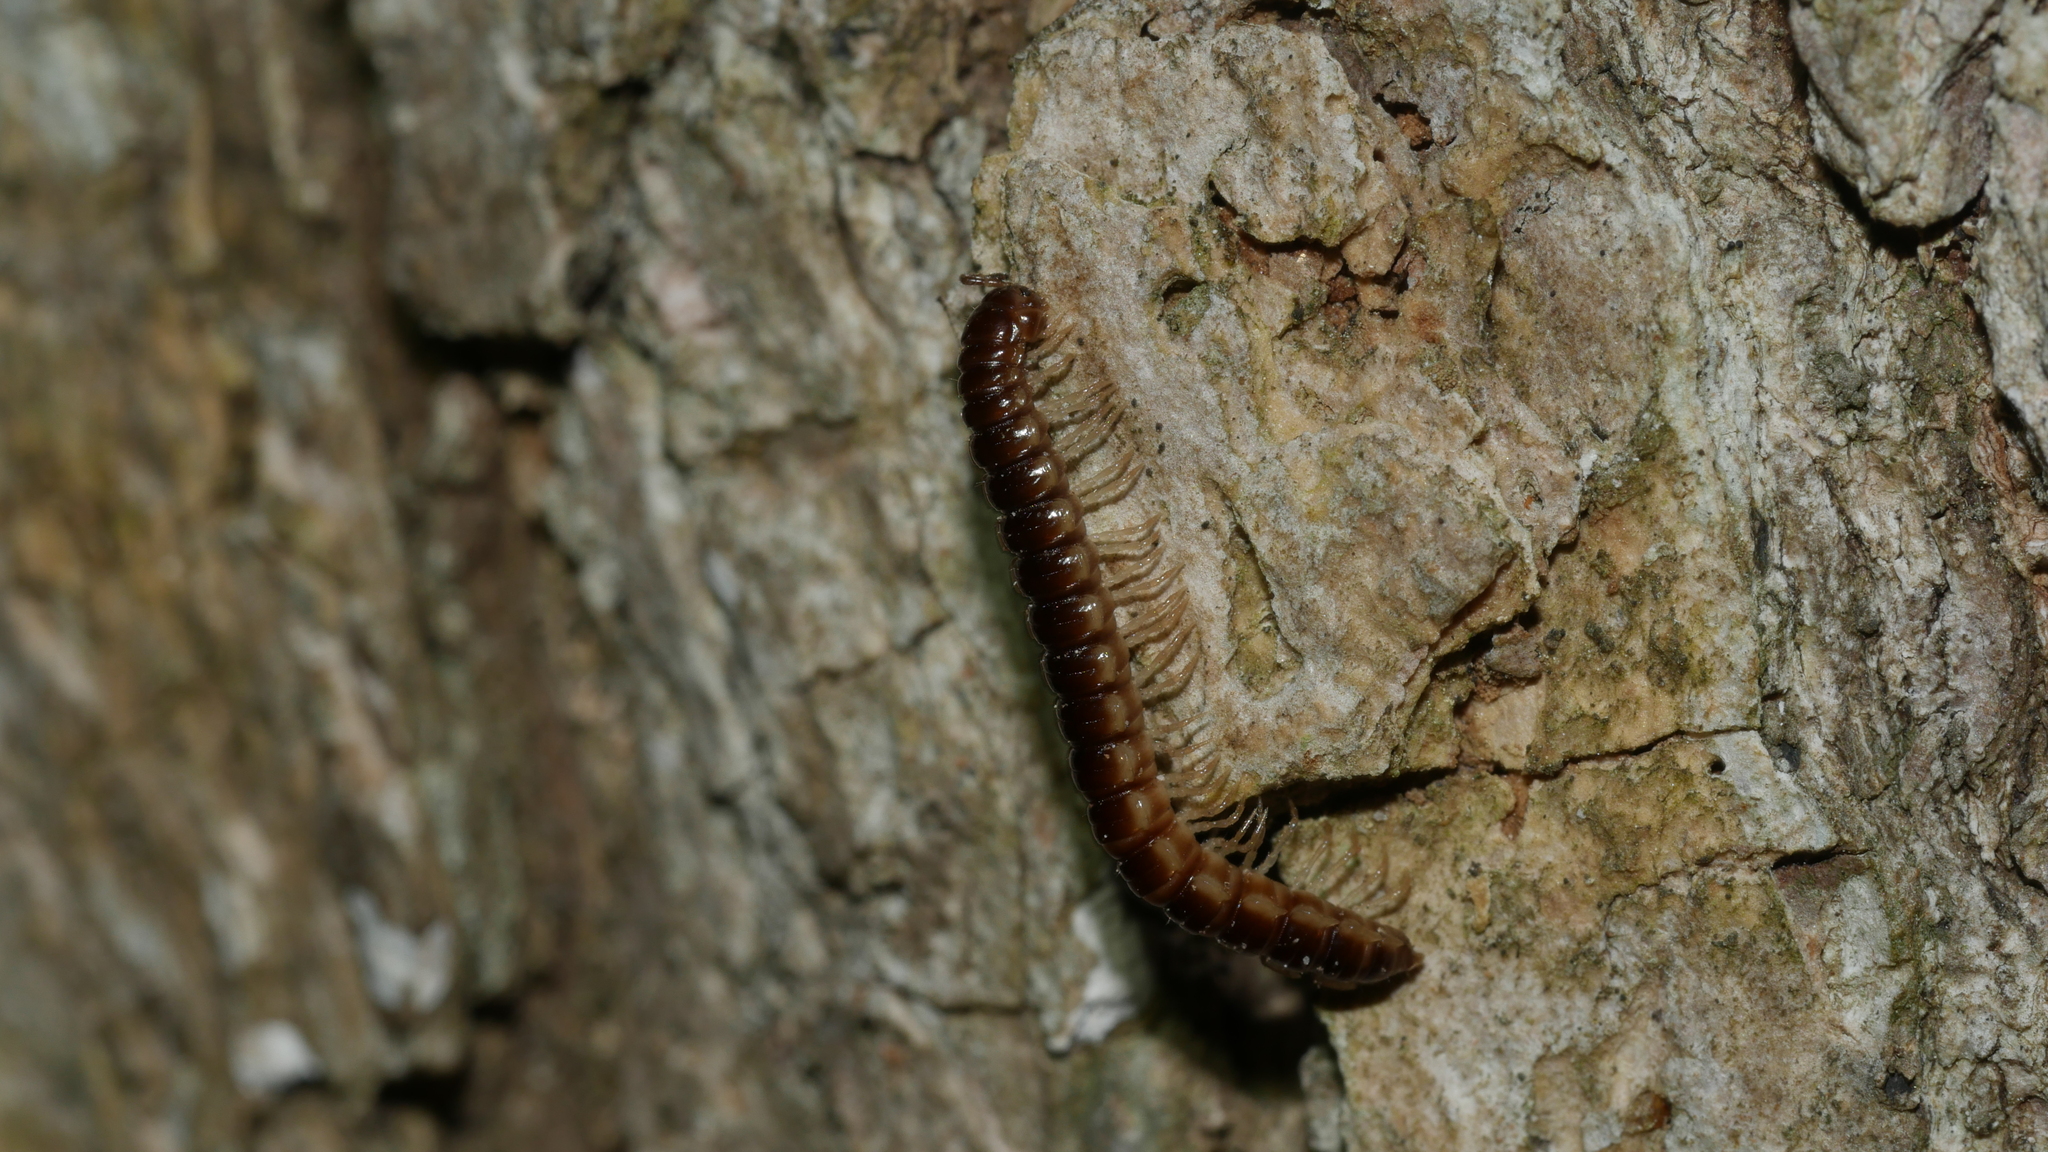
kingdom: Animalia
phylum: Arthropoda
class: Diplopoda
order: Polydesmida
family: Paradoxosomatidae
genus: Oxidus
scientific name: Oxidus gracilis
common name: Greenhouse millipede
